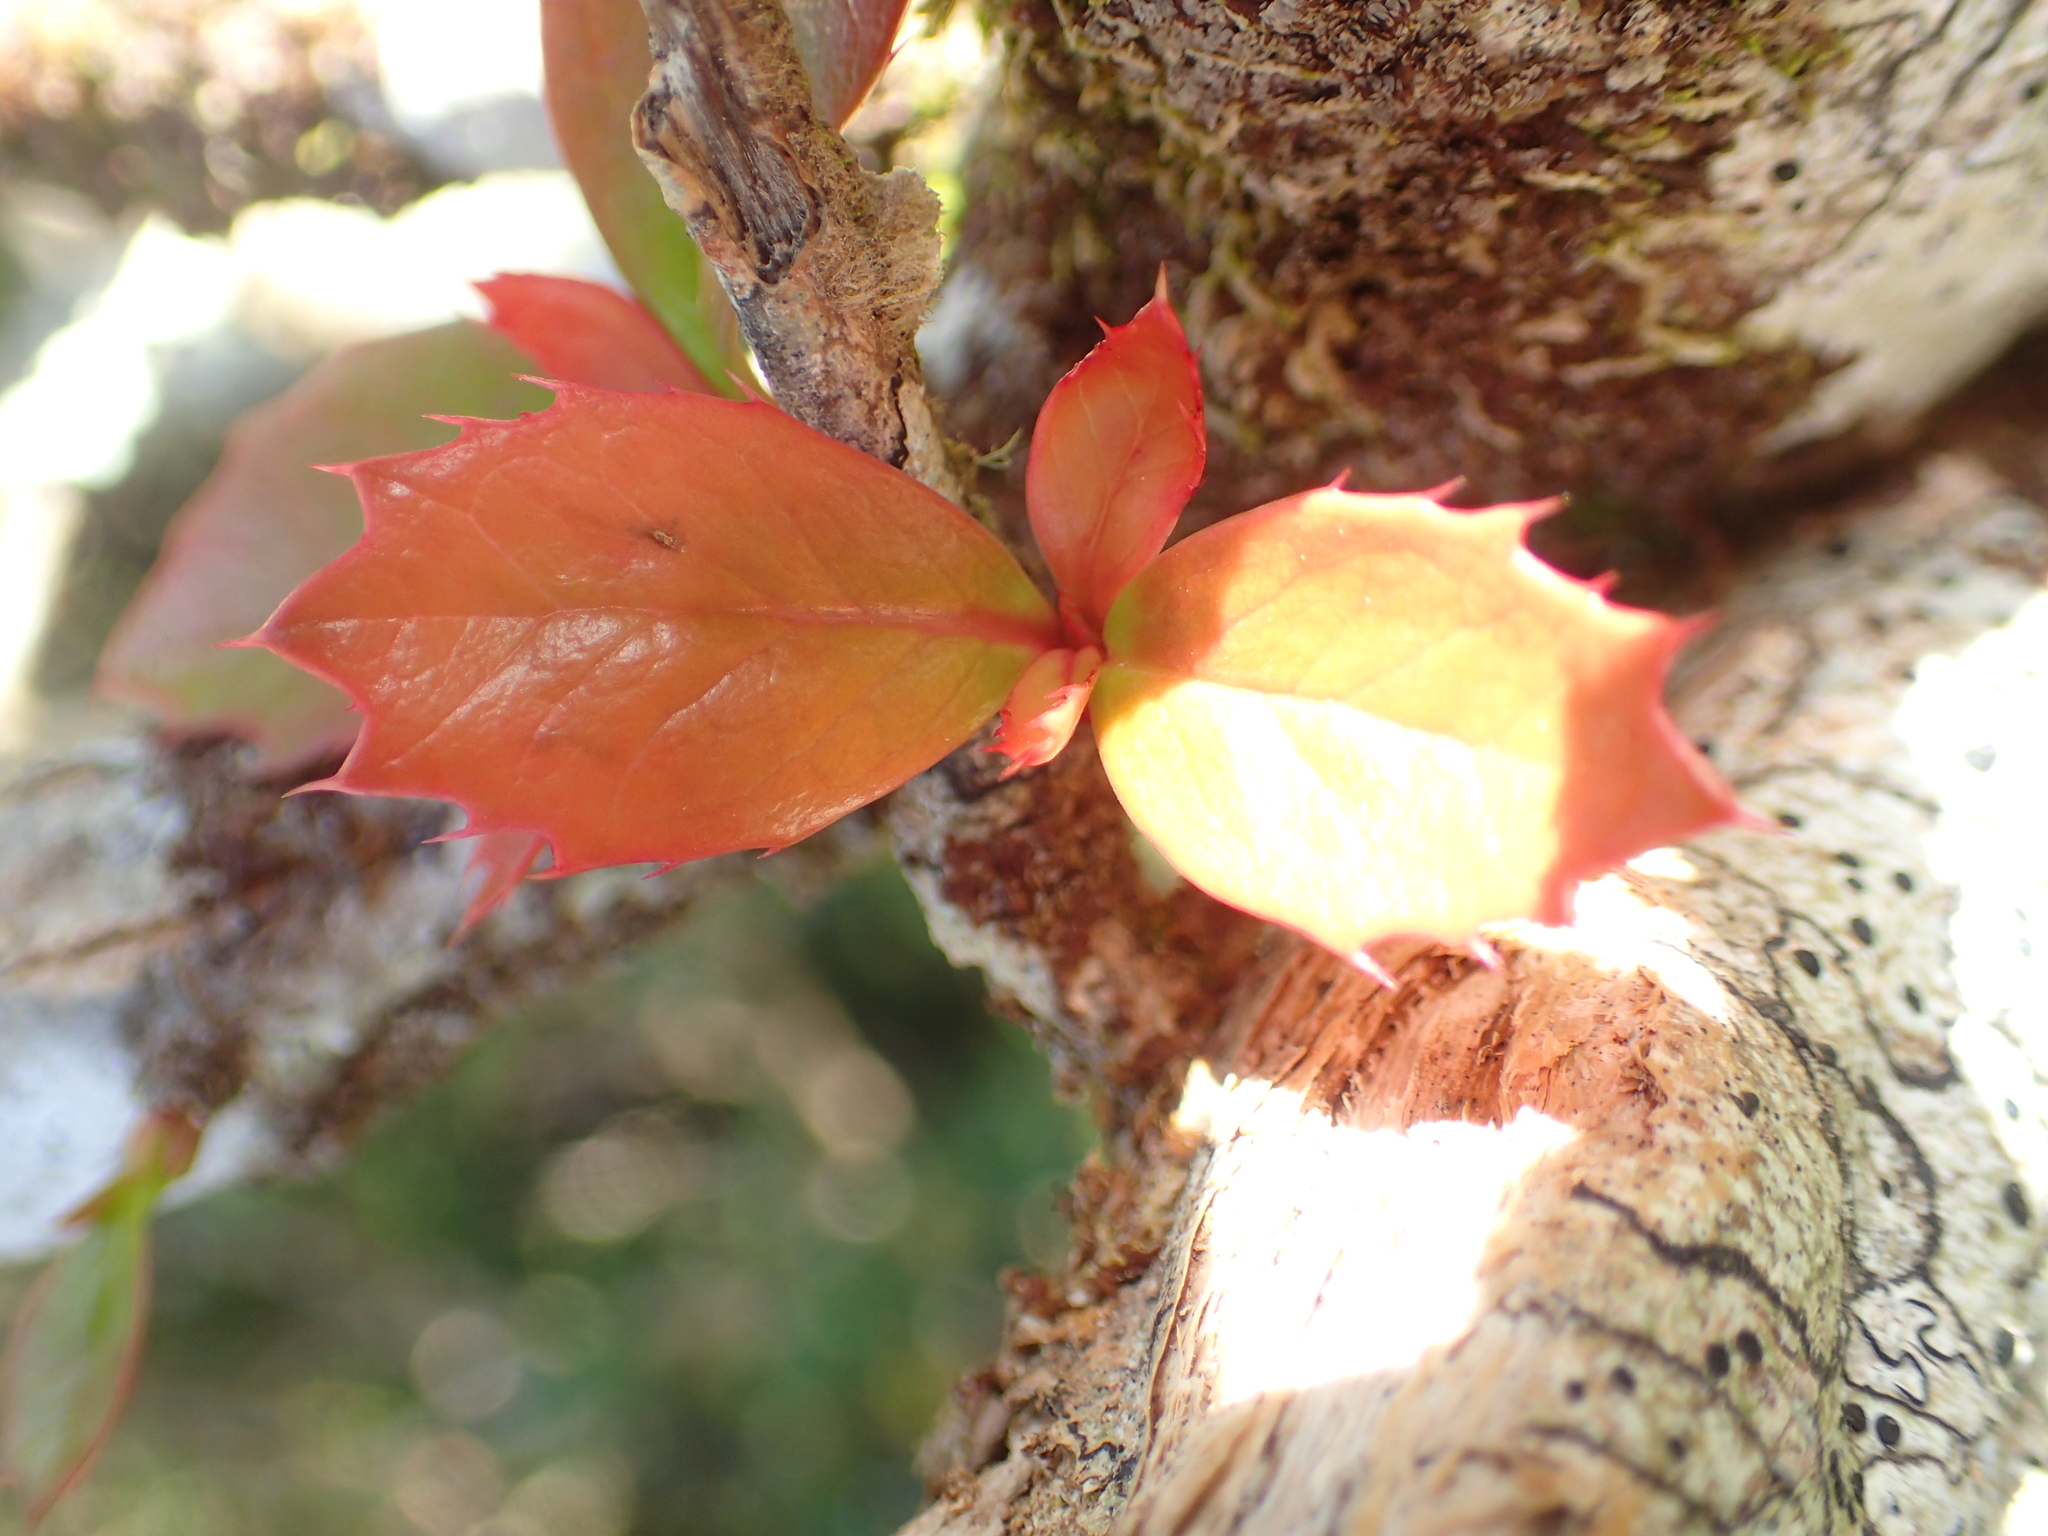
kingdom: Plantae
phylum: Tracheophyta
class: Magnoliopsida
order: Ranunculales
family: Berberidaceae
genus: Berberis
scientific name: Berberis darwinii
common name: Darwin's barberry
